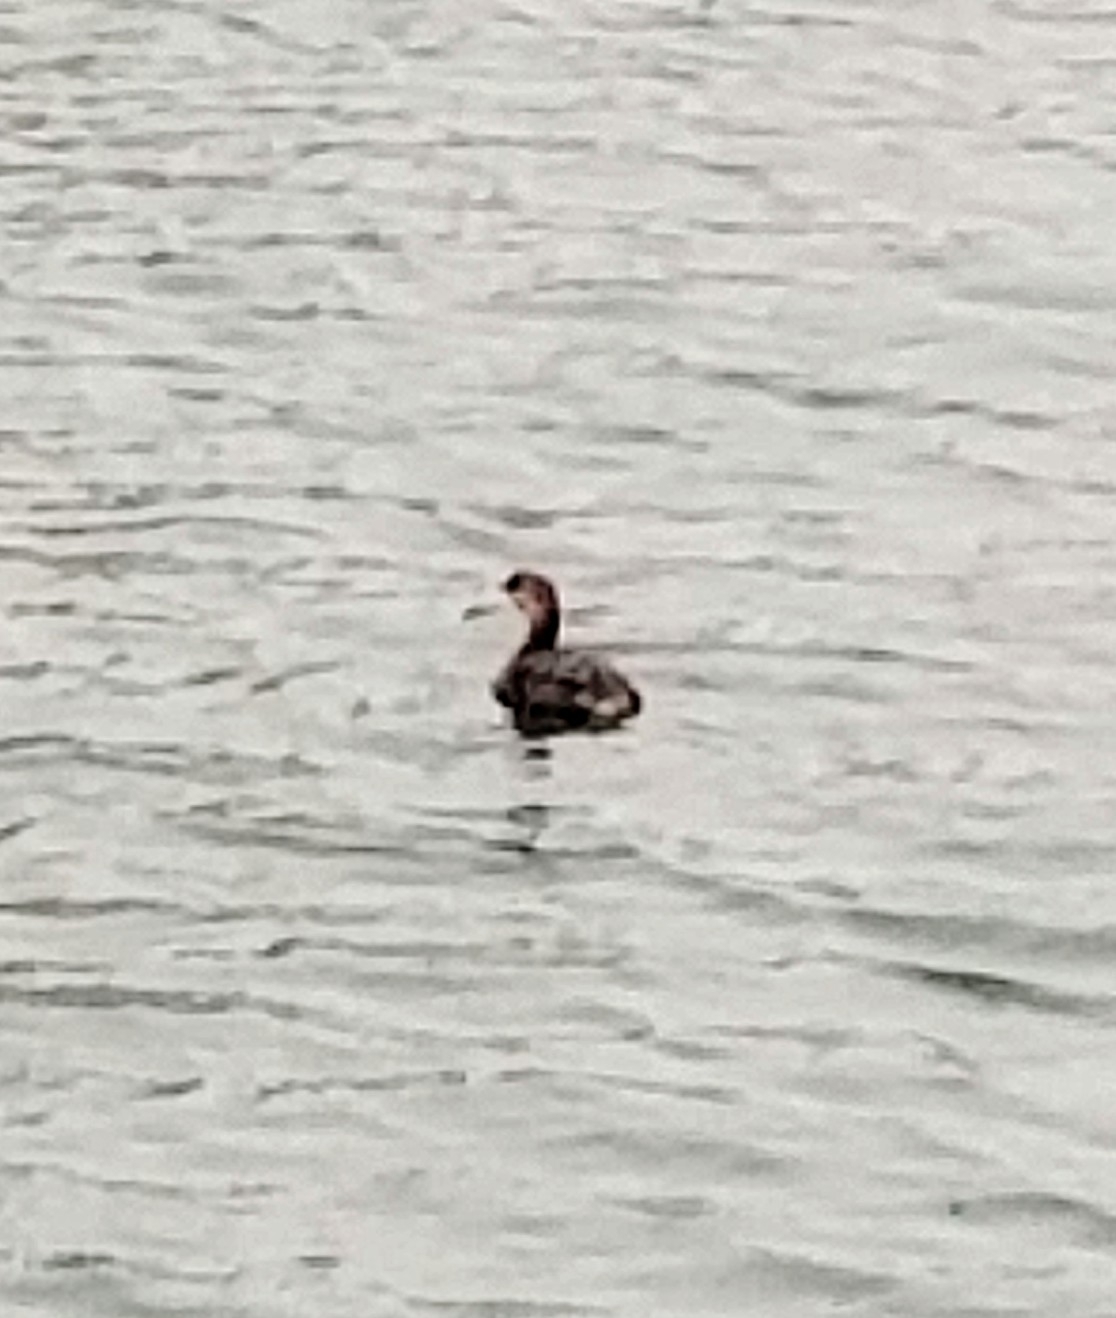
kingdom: Animalia
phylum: Chordata
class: Aves
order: Podicipediformes
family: Podicipedidae
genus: Podilymbus
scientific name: Podilymbus podiceps
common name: Pied-billed grebe
